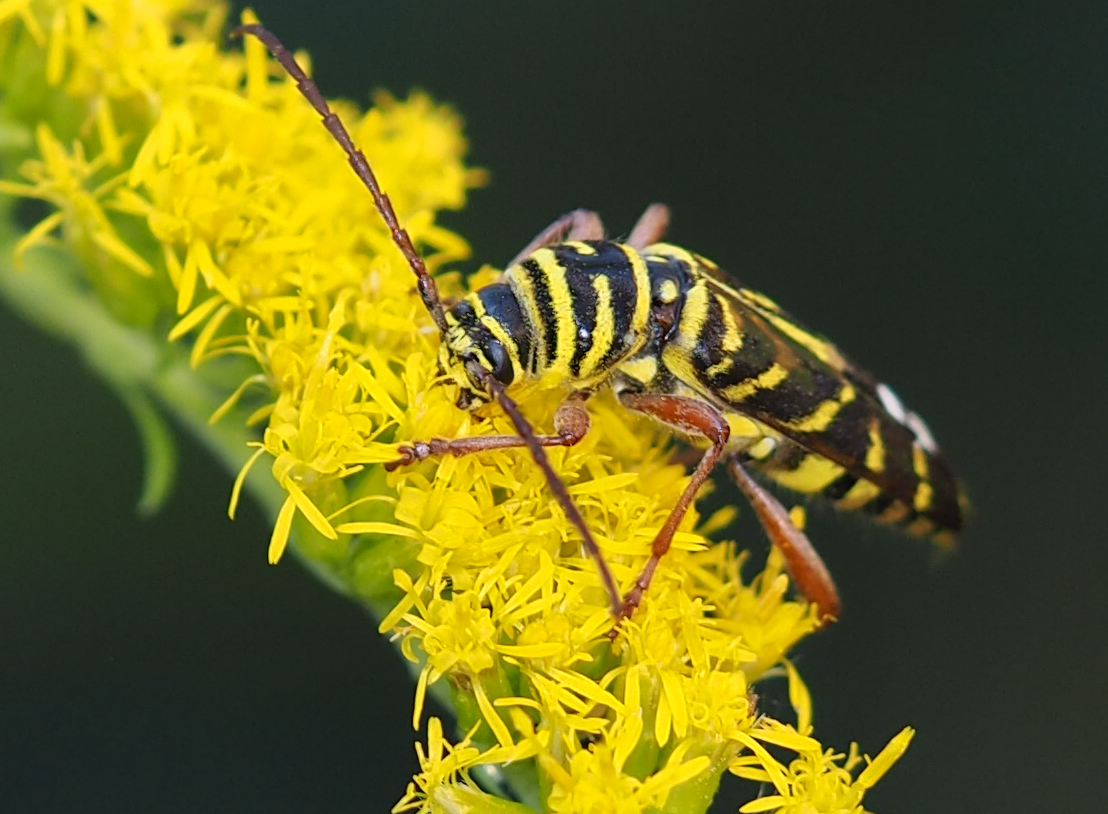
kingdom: Animalia
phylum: Arthropoda
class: Insecta
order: Coleoptera
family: Cerambycidae
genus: Megacyllene
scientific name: Megacyllene robiniae
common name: Locust borer
